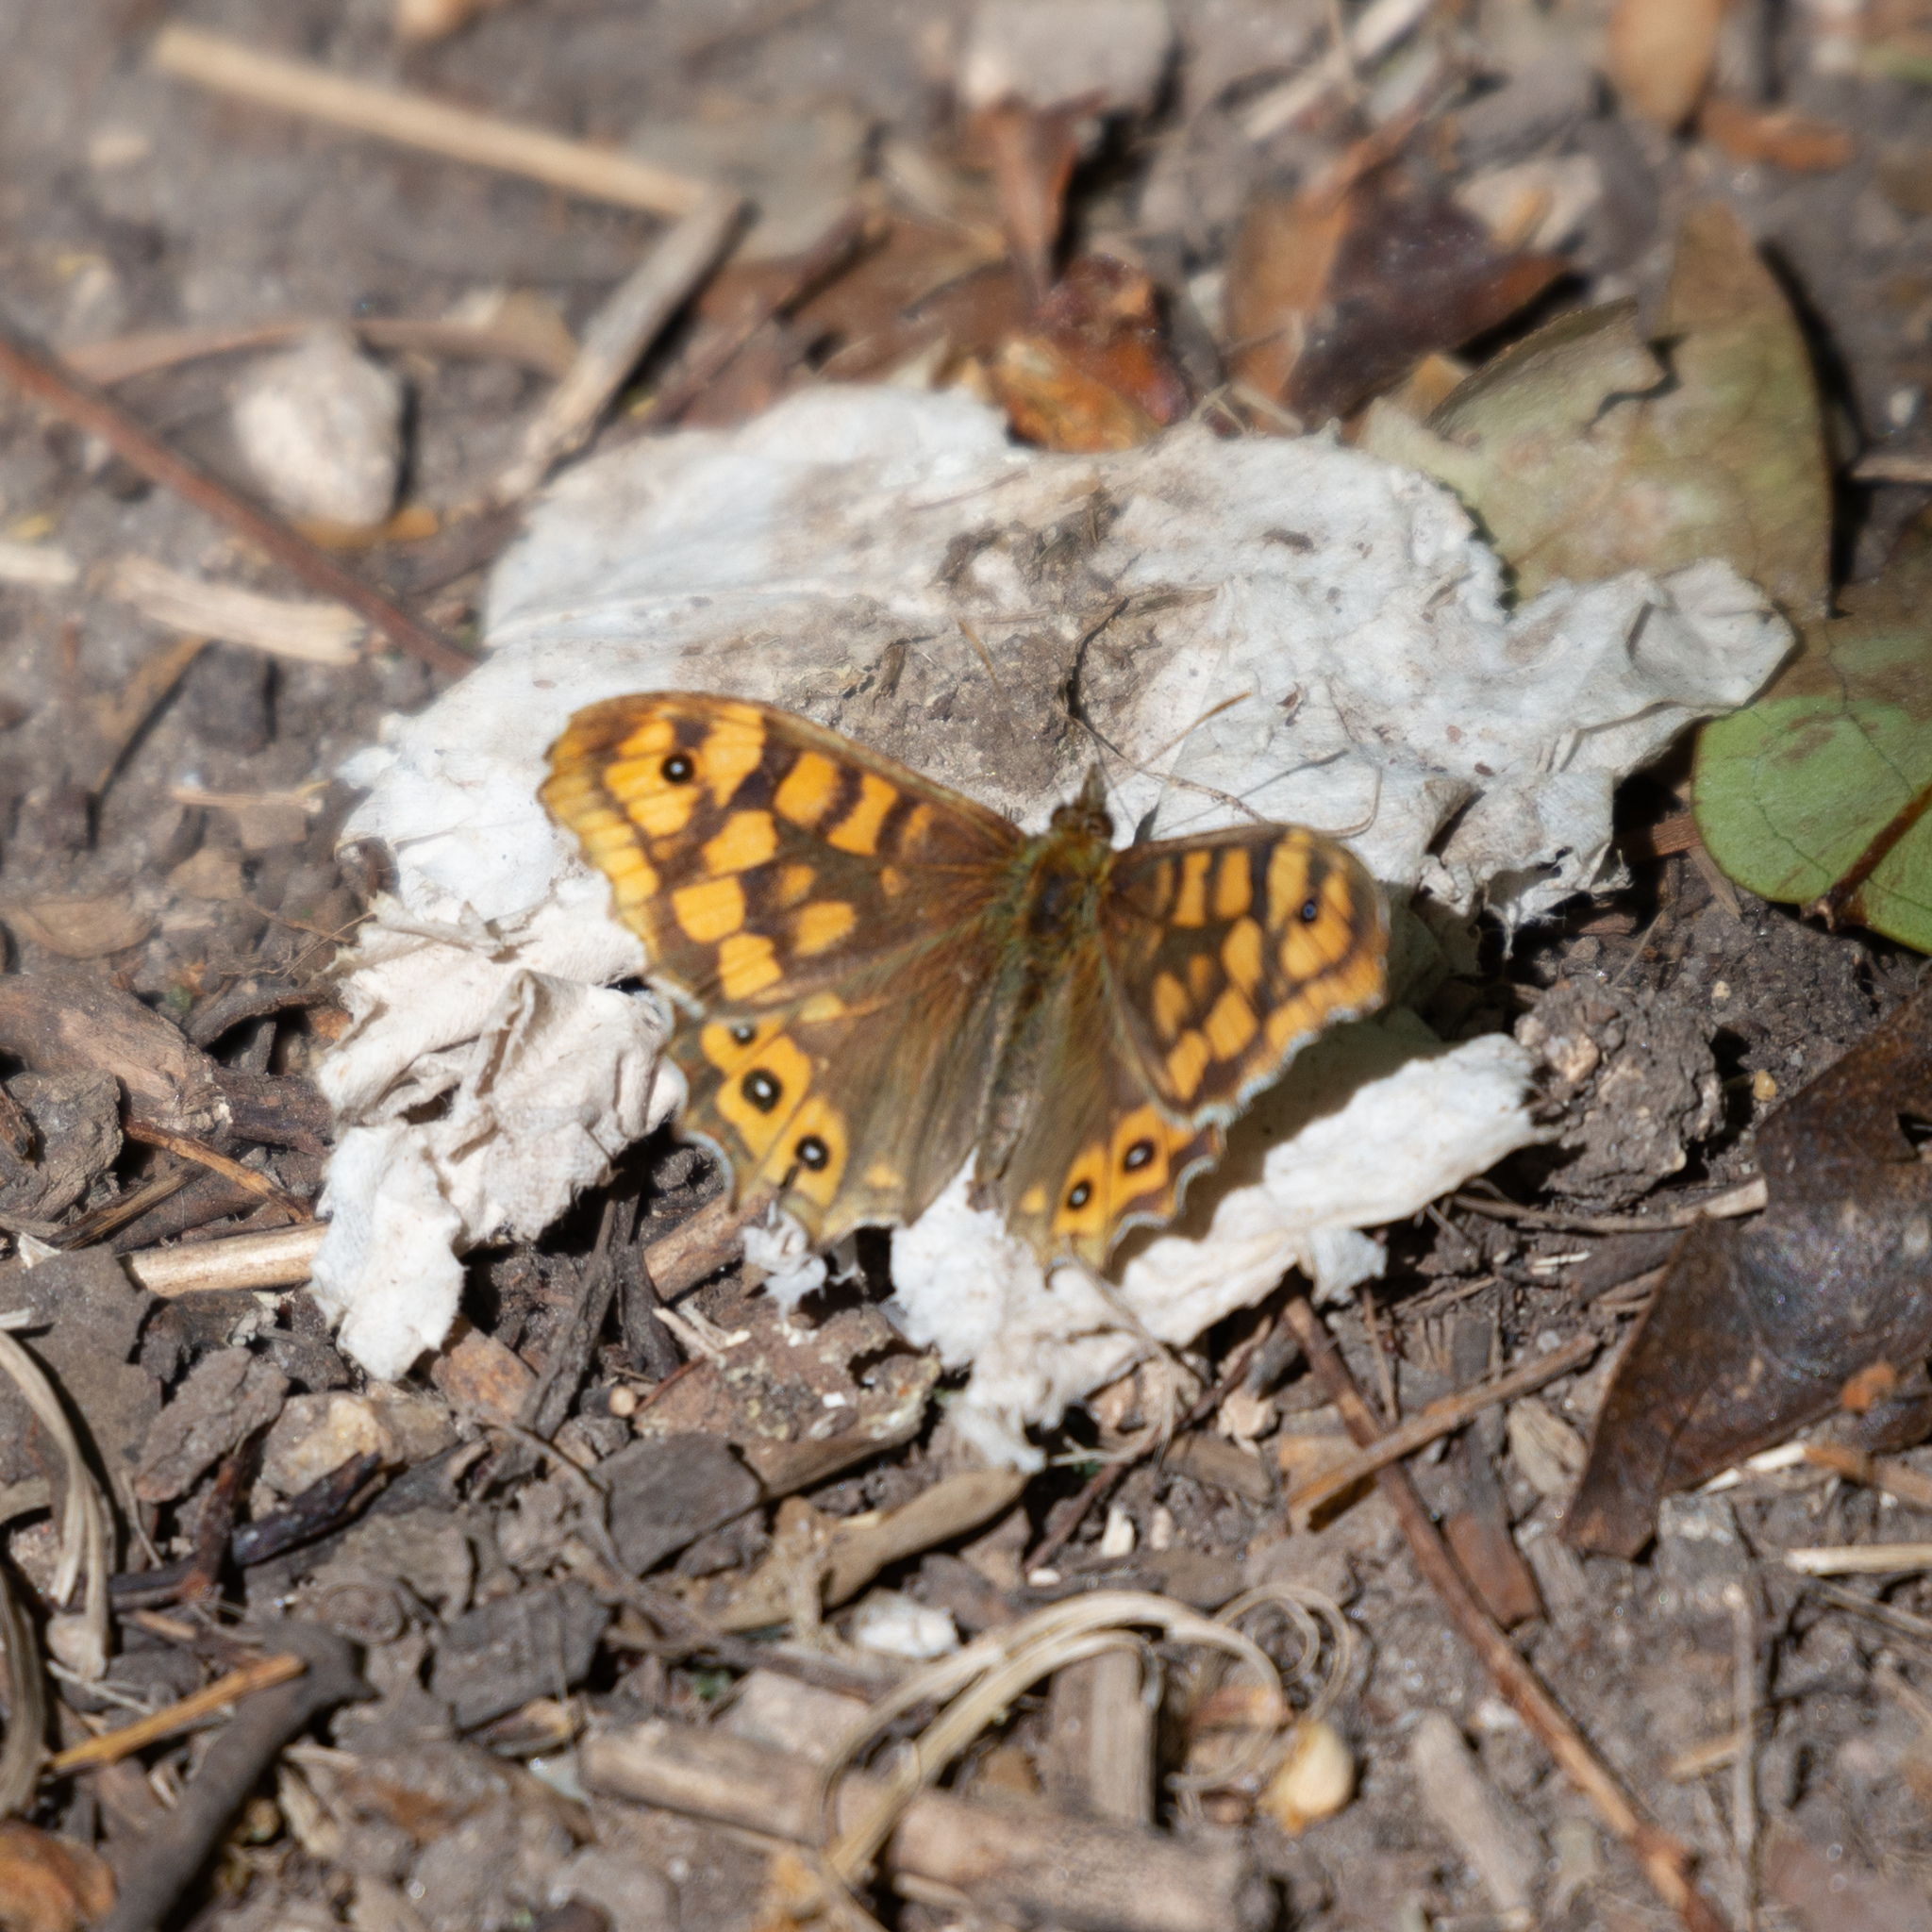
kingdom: Animalia
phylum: Arthropoda
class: Insecta
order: Lepidoptera
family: Nymphalidae
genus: Pararge
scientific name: Pararge aegeria
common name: Speckled wood
